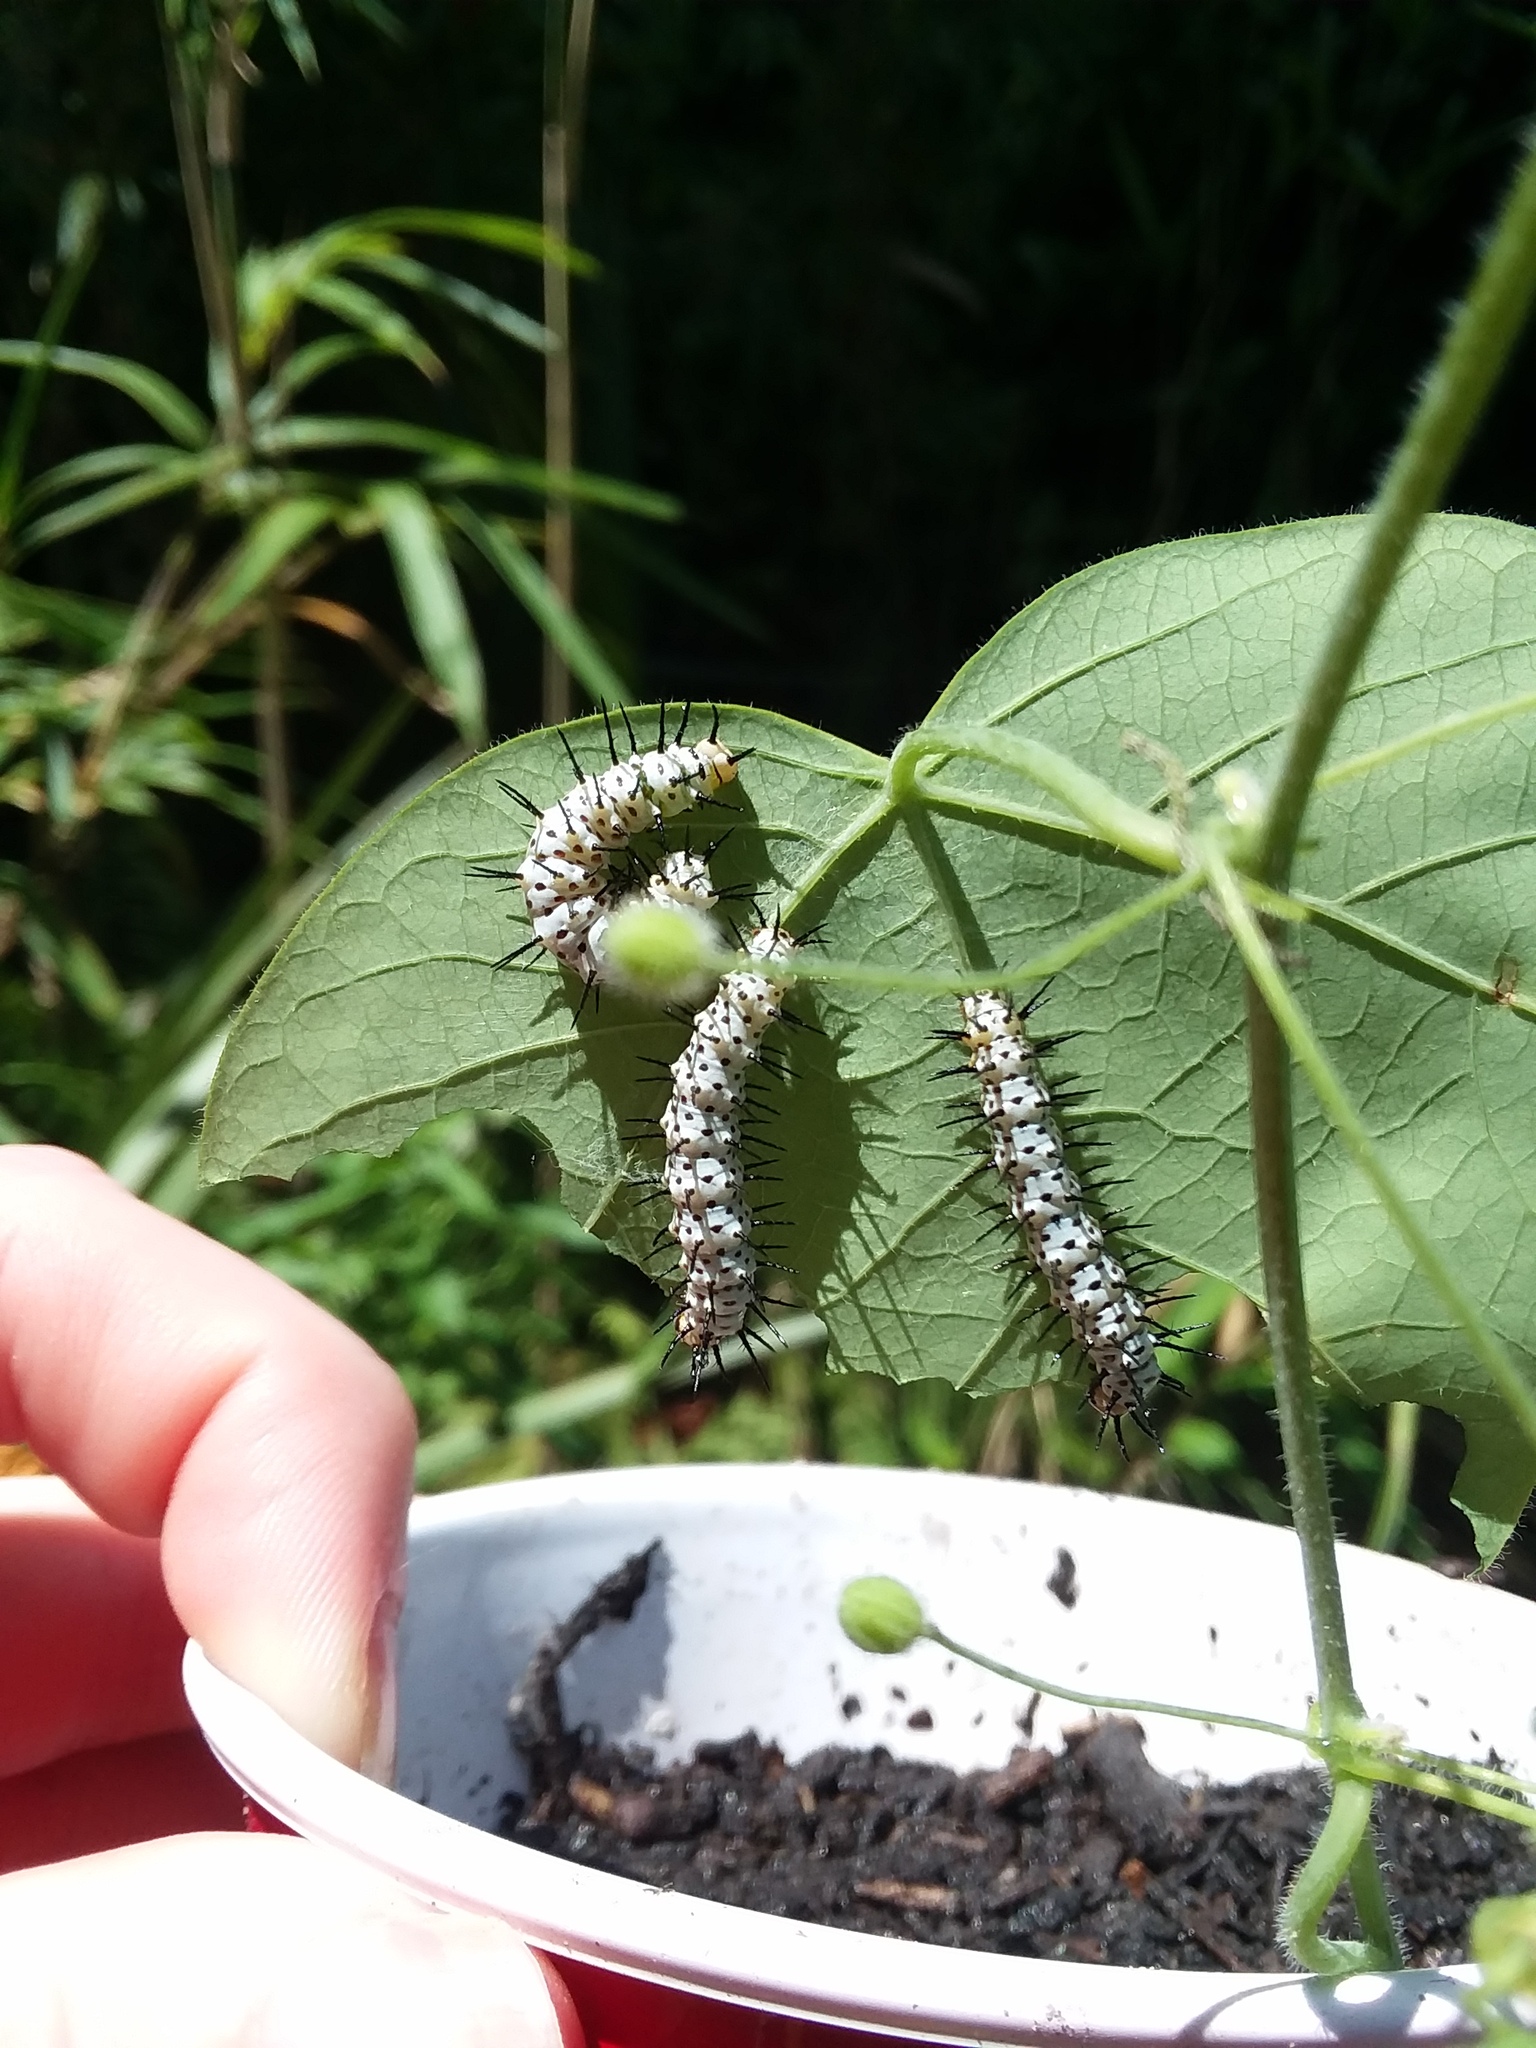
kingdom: Animalia
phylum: Arthropoda
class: Insecta
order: Lepidoptera
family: Nymphalidae
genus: Heliconius
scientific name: Heliconius charithonia
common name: Zebra long wing
